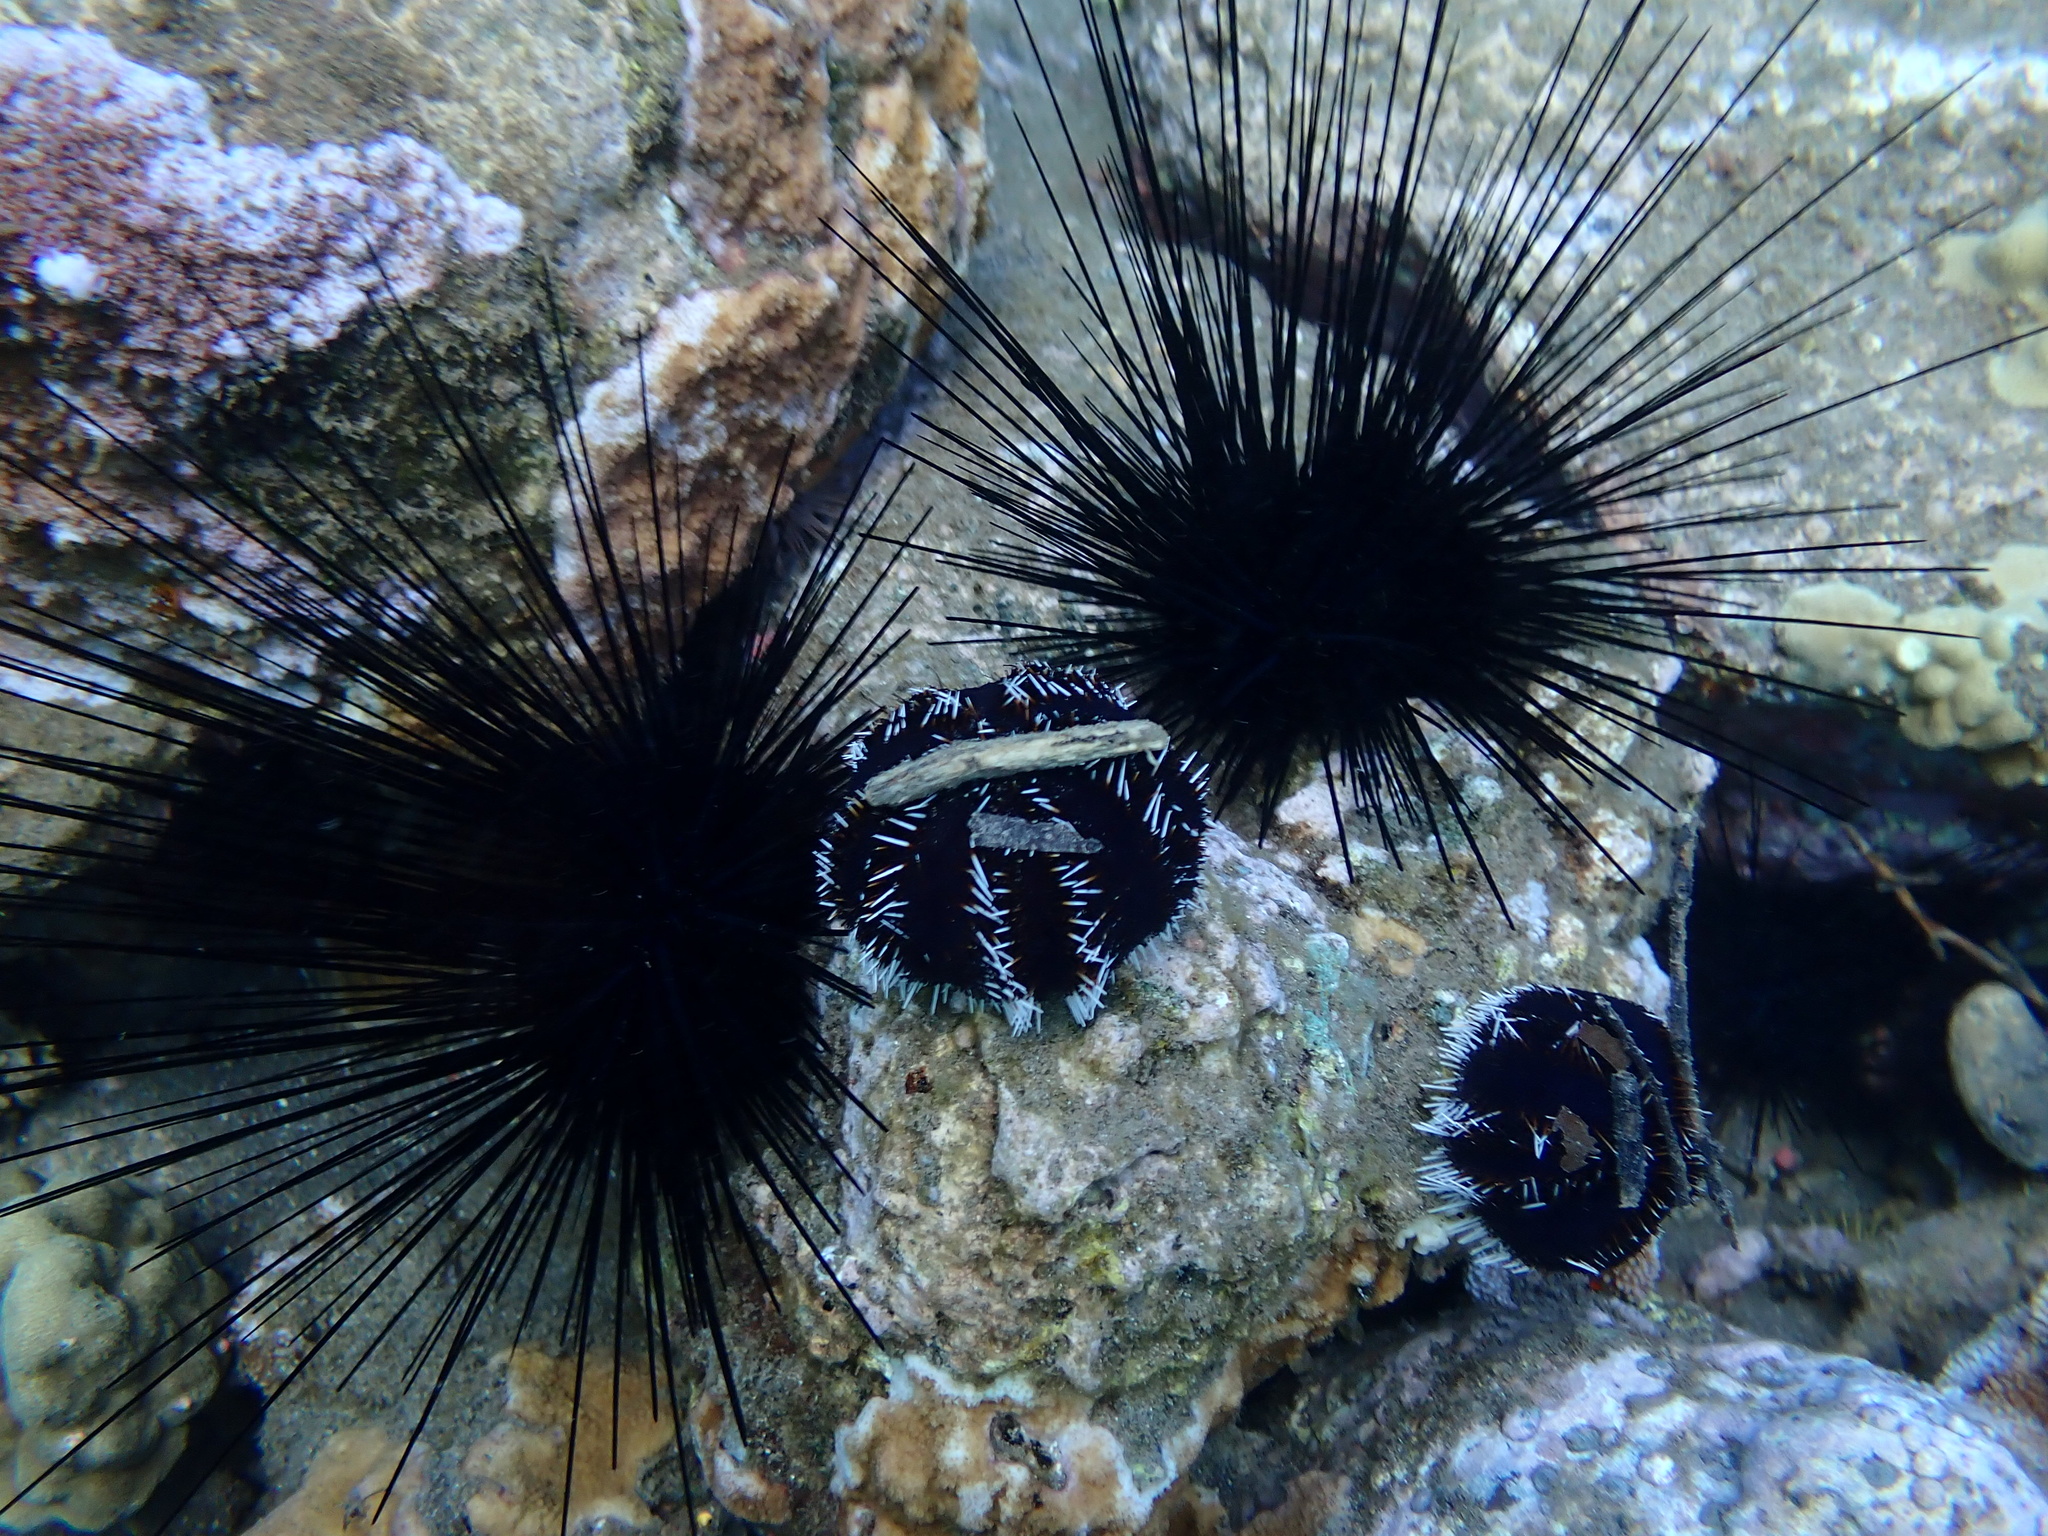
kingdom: Animalia
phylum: Echinodermata
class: Echinoidea
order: Diadematoida
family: Diadematidae
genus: Diadema
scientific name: Diadema savignyi
